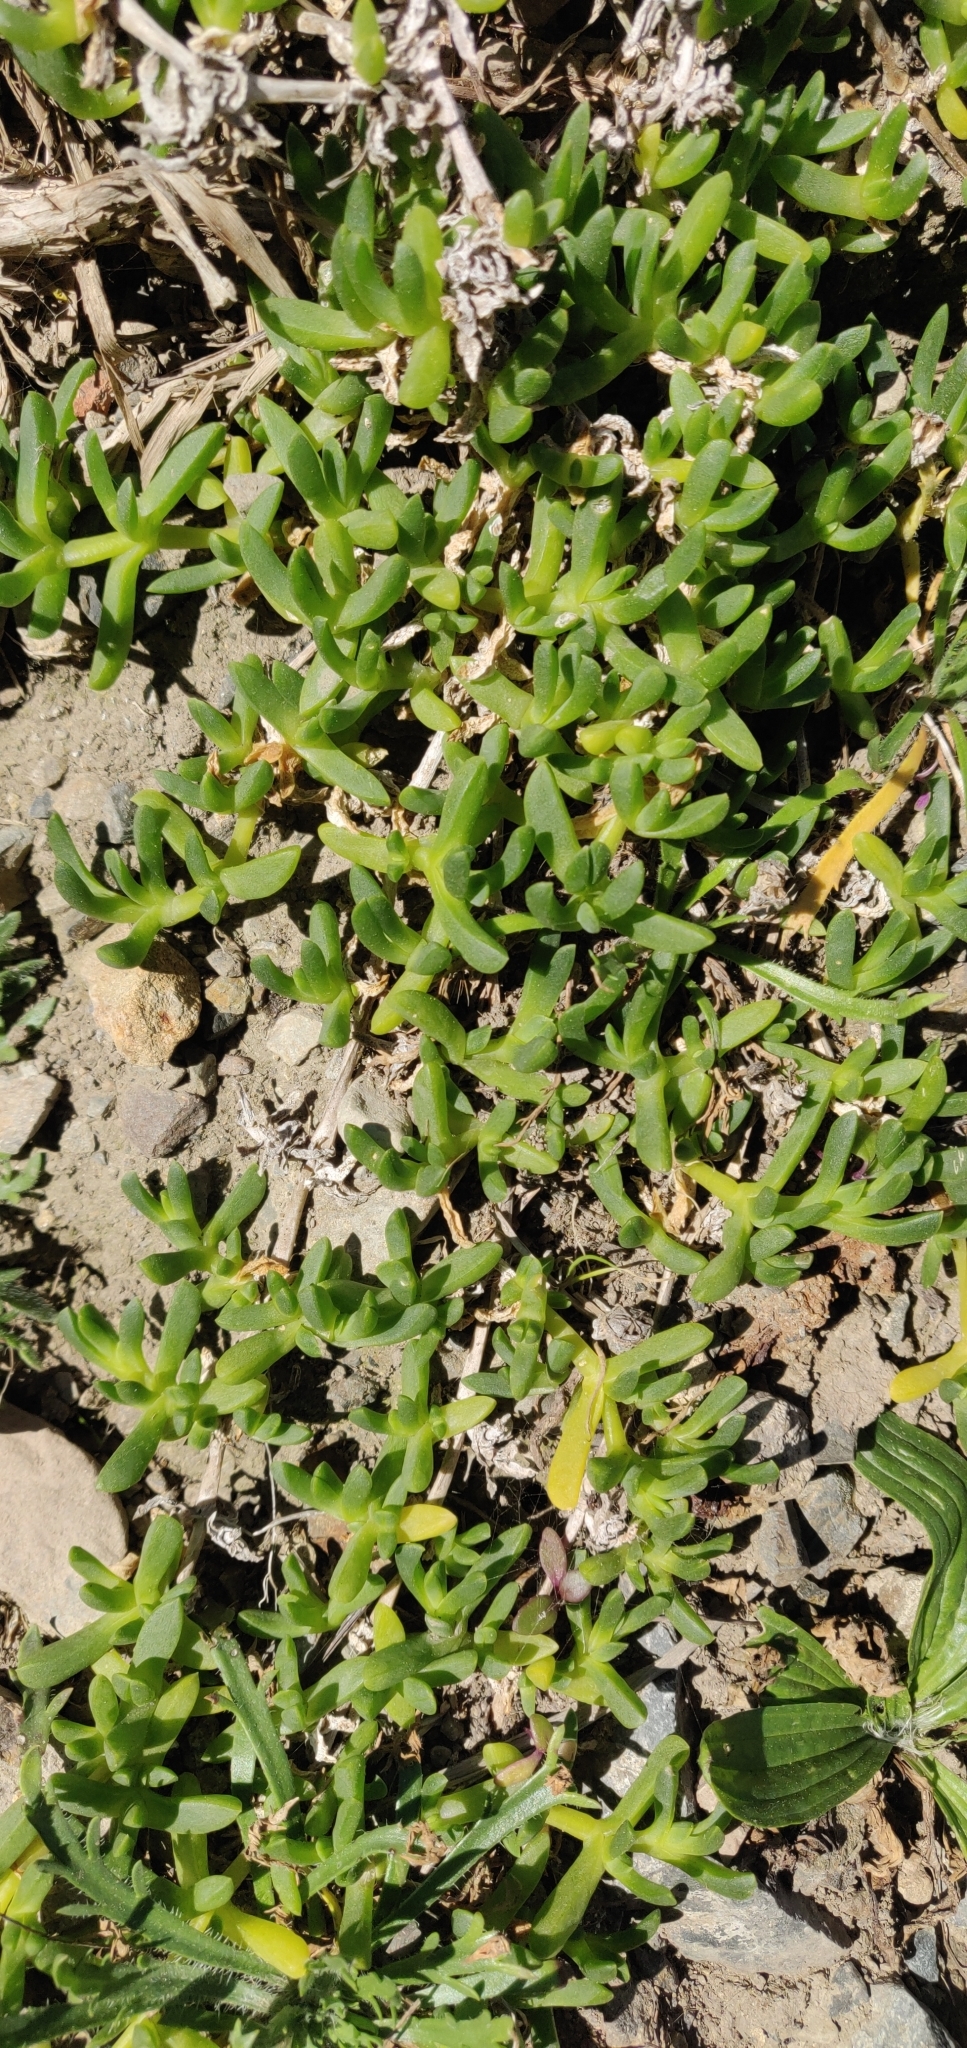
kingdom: Plantae
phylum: Tracheophyta
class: Magnoliopsida
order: Caryophyllales
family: Aizoaceae
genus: Disphyma
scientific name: Disphyma australe
